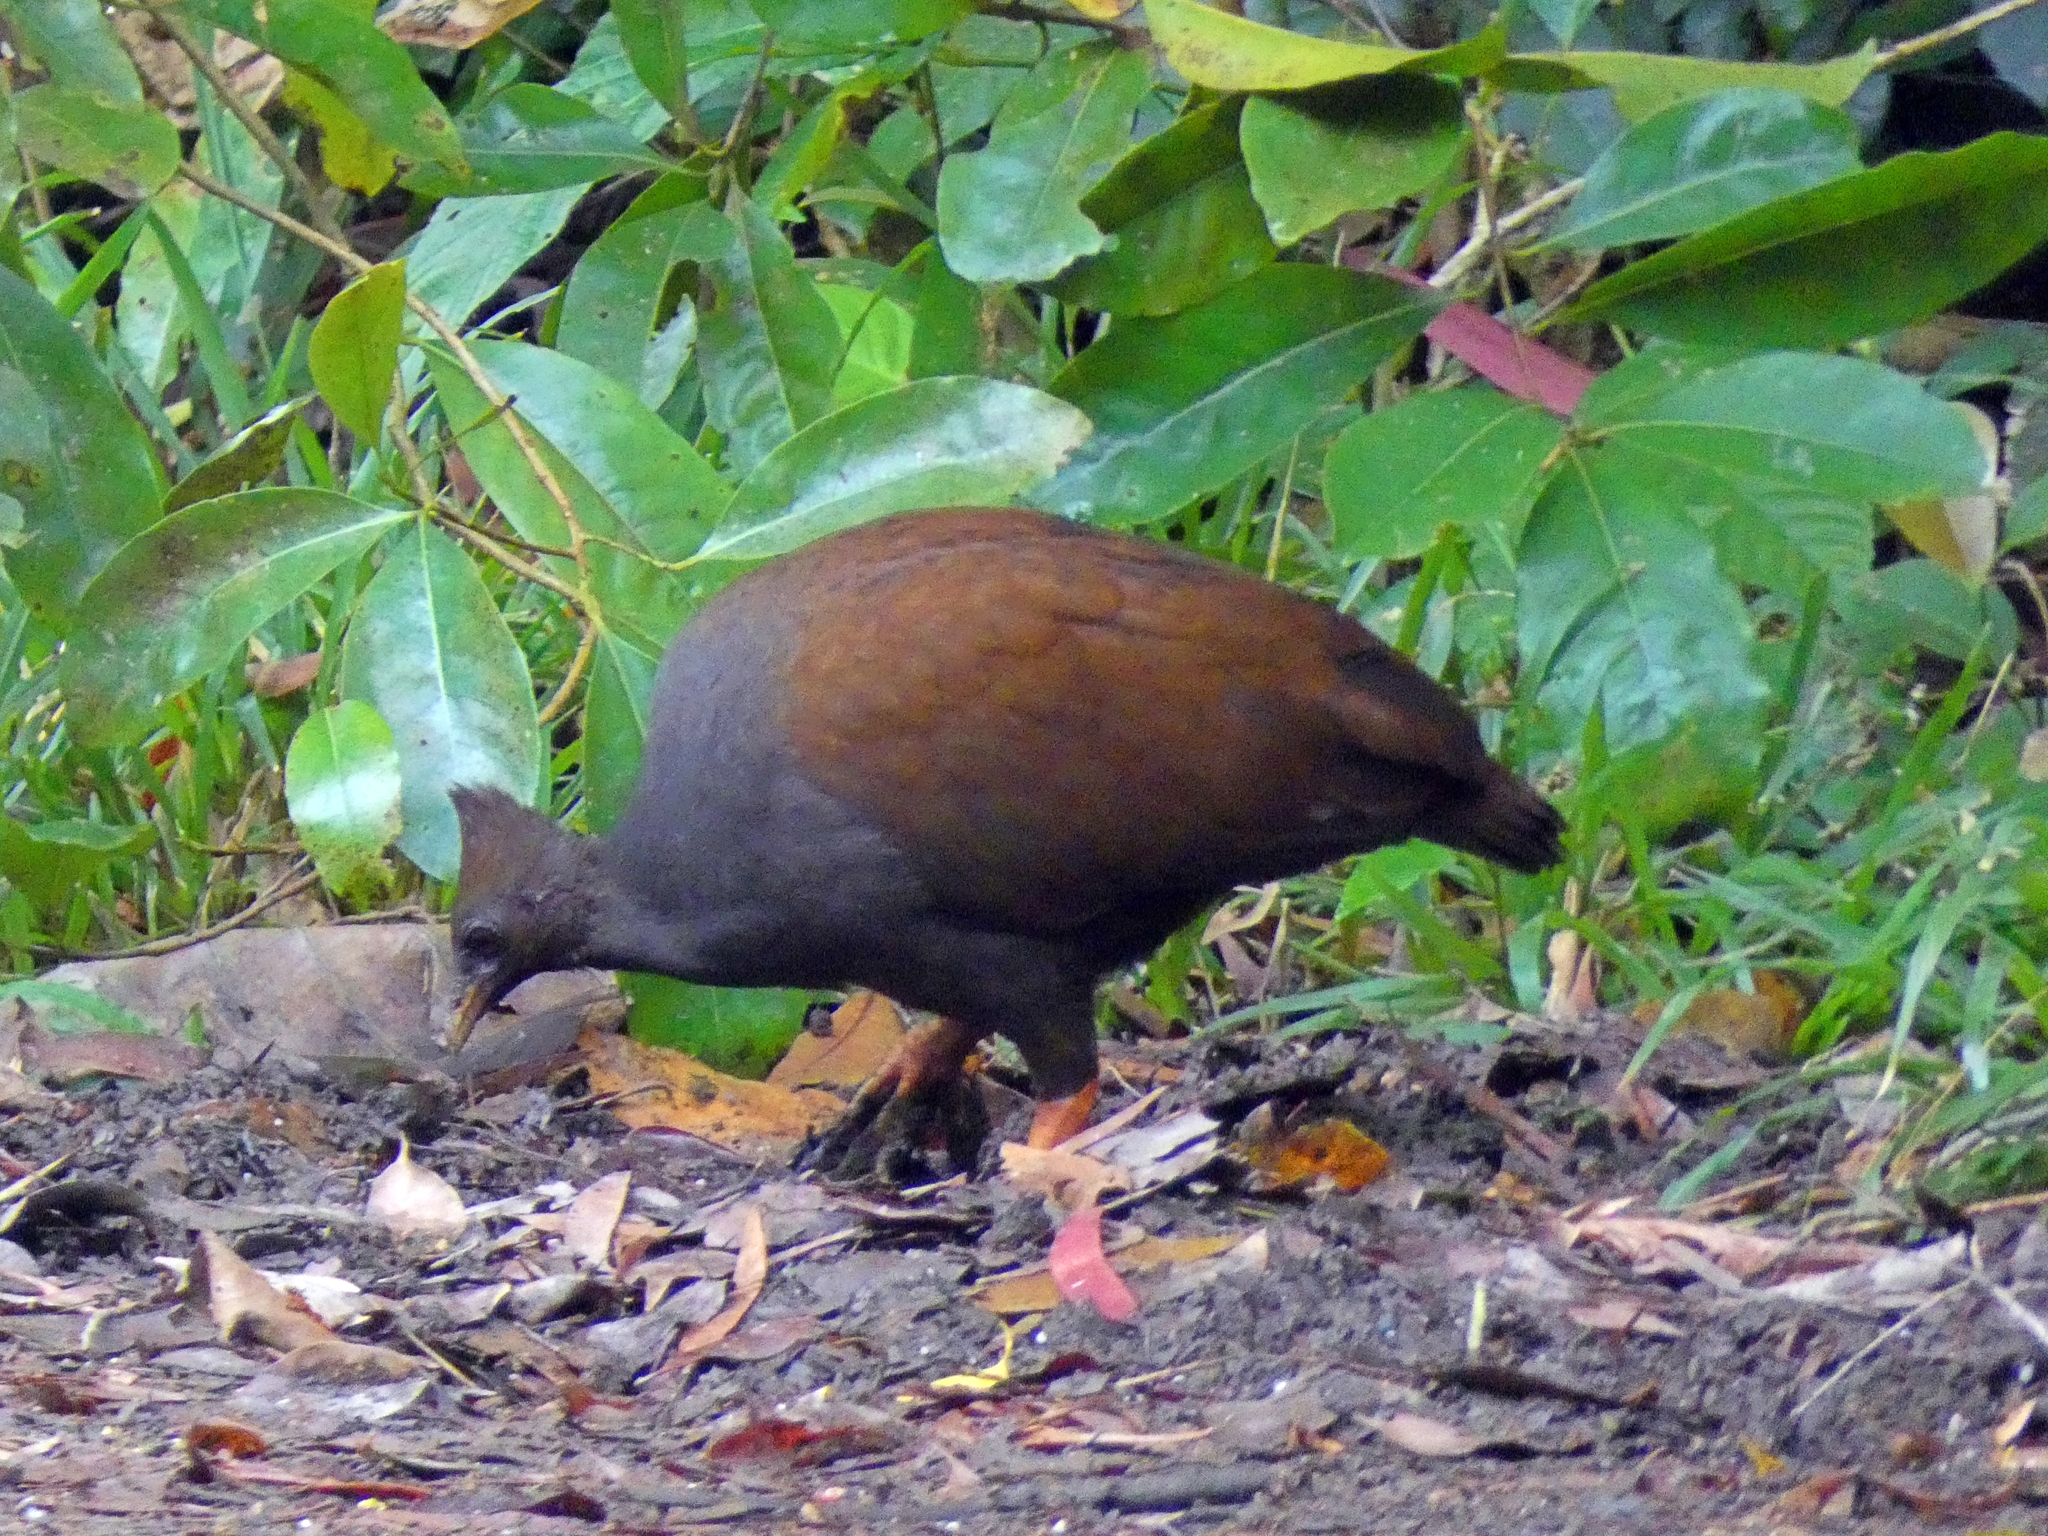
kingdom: Animalia
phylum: Chordata
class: Aves
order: Galliformes
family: Megapodiidae
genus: Megapodius
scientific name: Megapodius reinwardt
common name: Orange-footed scrubfowl
